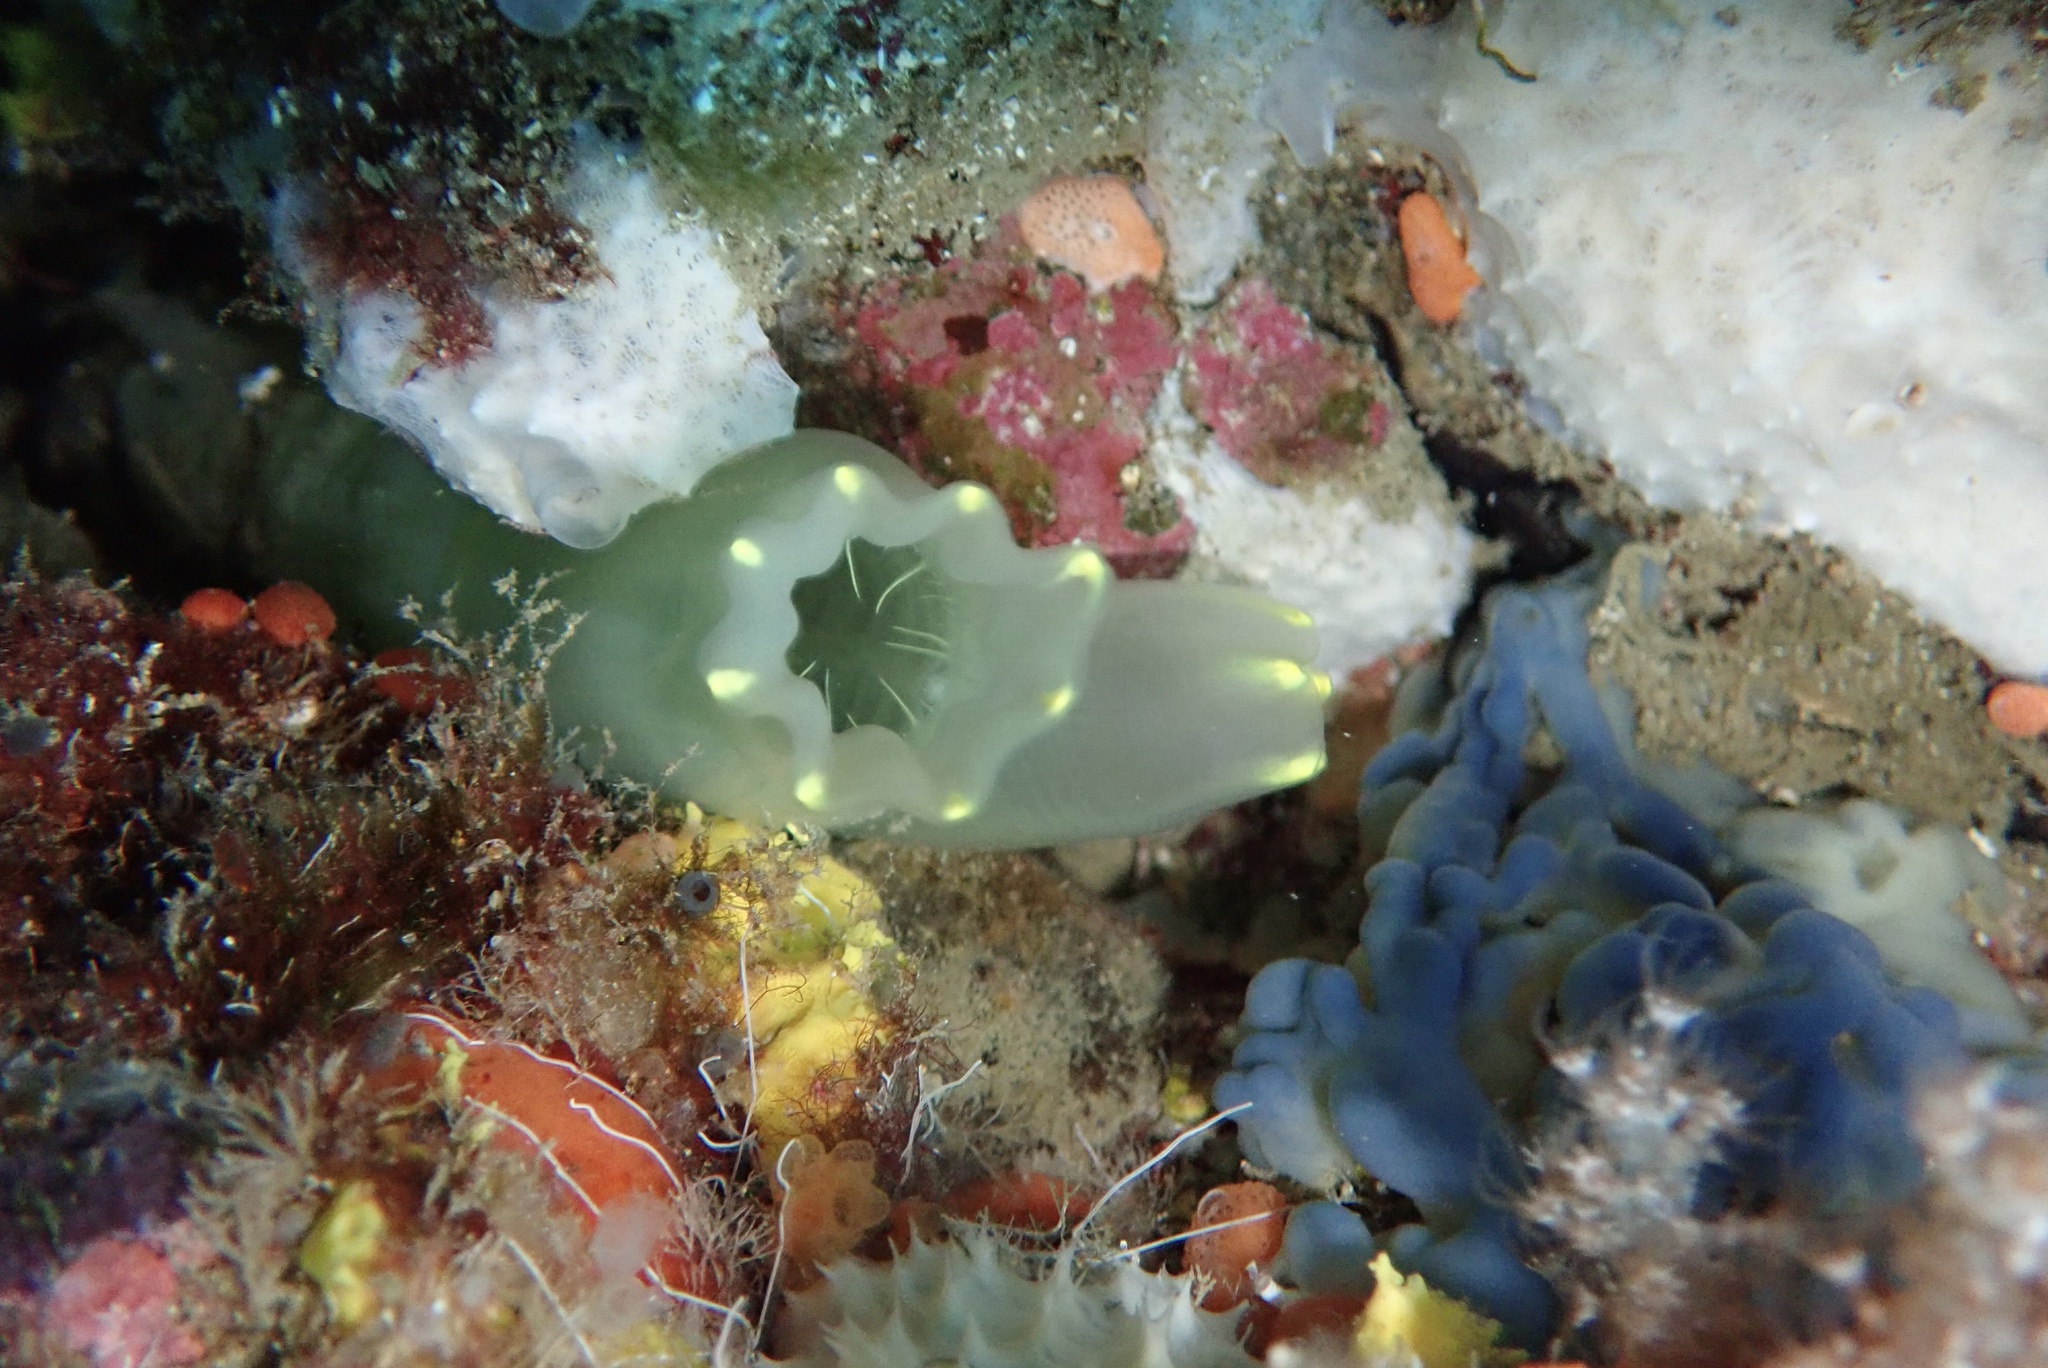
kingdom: Animalia
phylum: Chordata
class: Ascidiacea
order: Phlebobranchia
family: Cionidae
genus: Ciona
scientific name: Ciona intestinalis
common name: Vase tunicate
